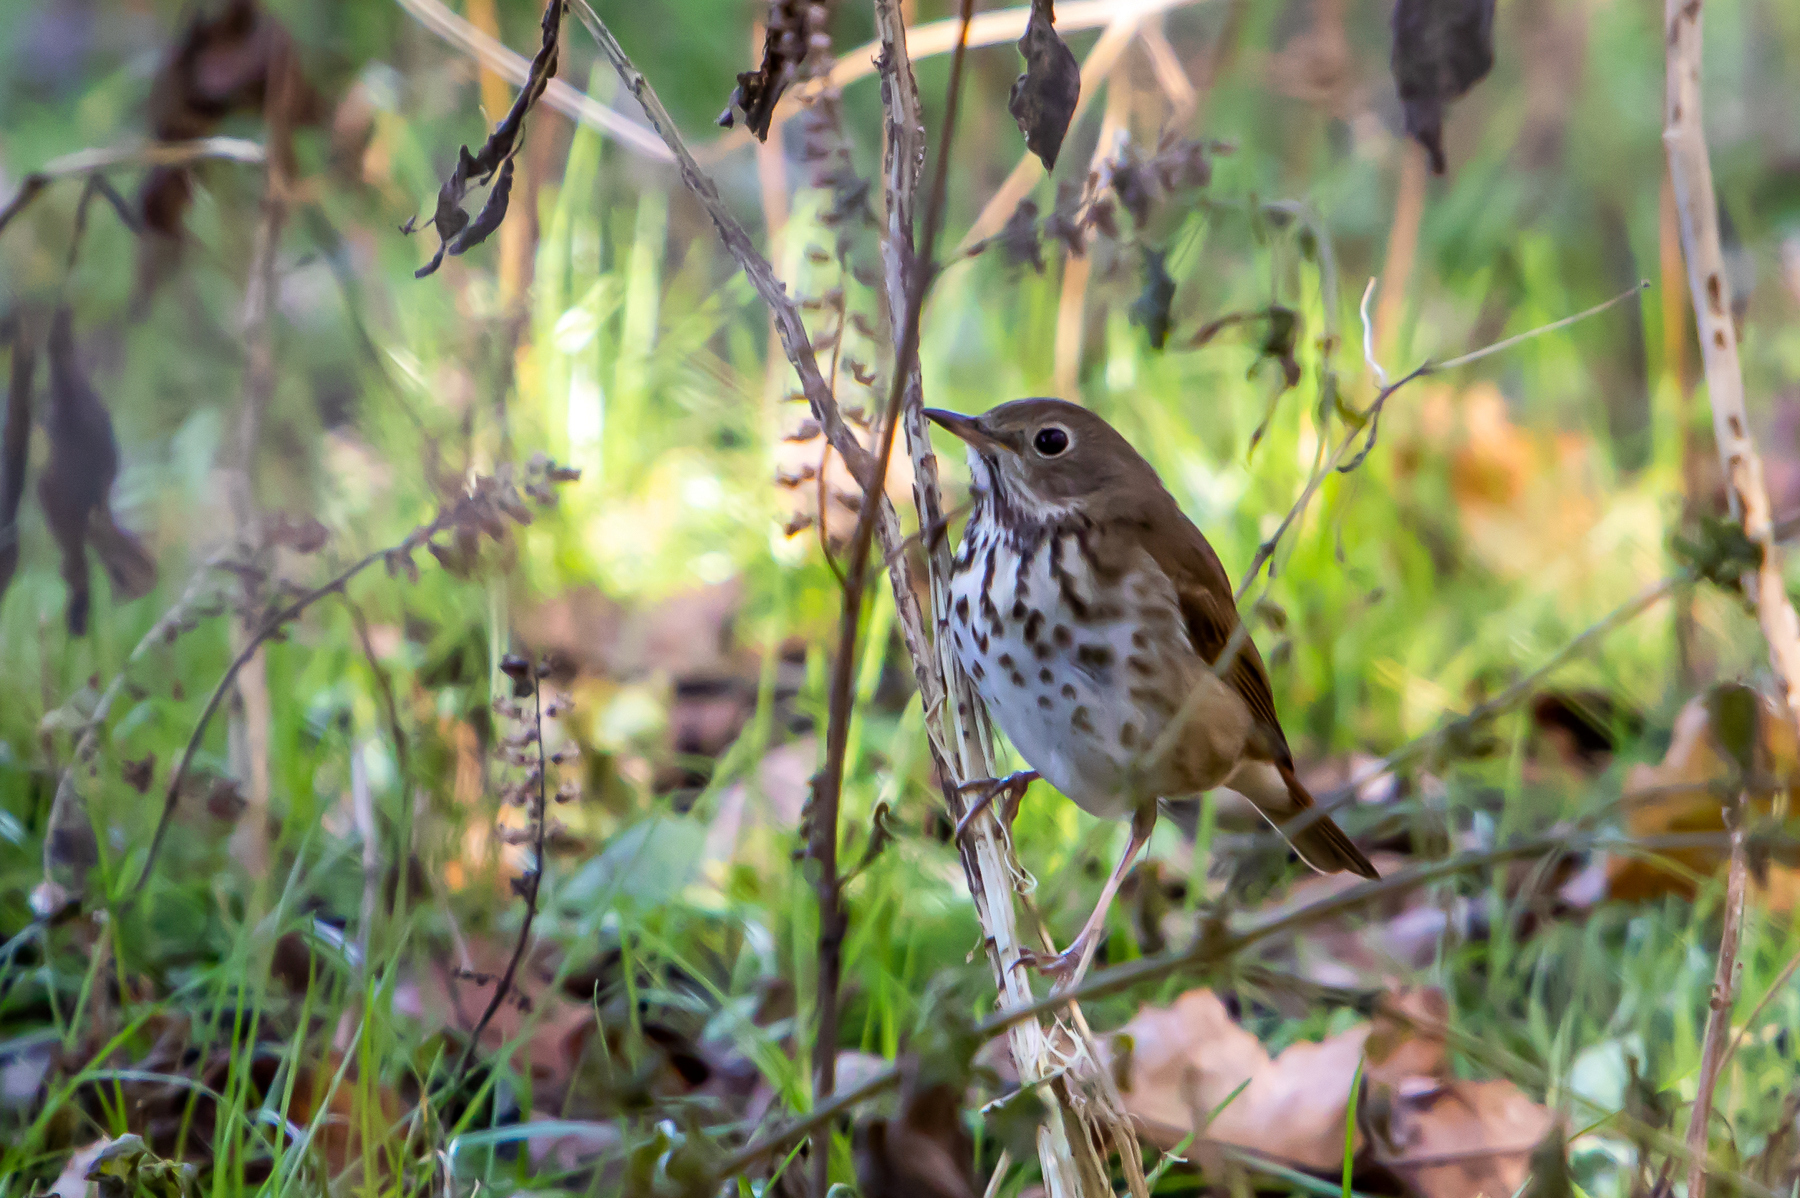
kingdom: Animalia
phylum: Chordata
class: Aves
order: Passeriformes
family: Turdidae
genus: Catharus
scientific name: Catharus guttatus
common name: Hermit thrush
